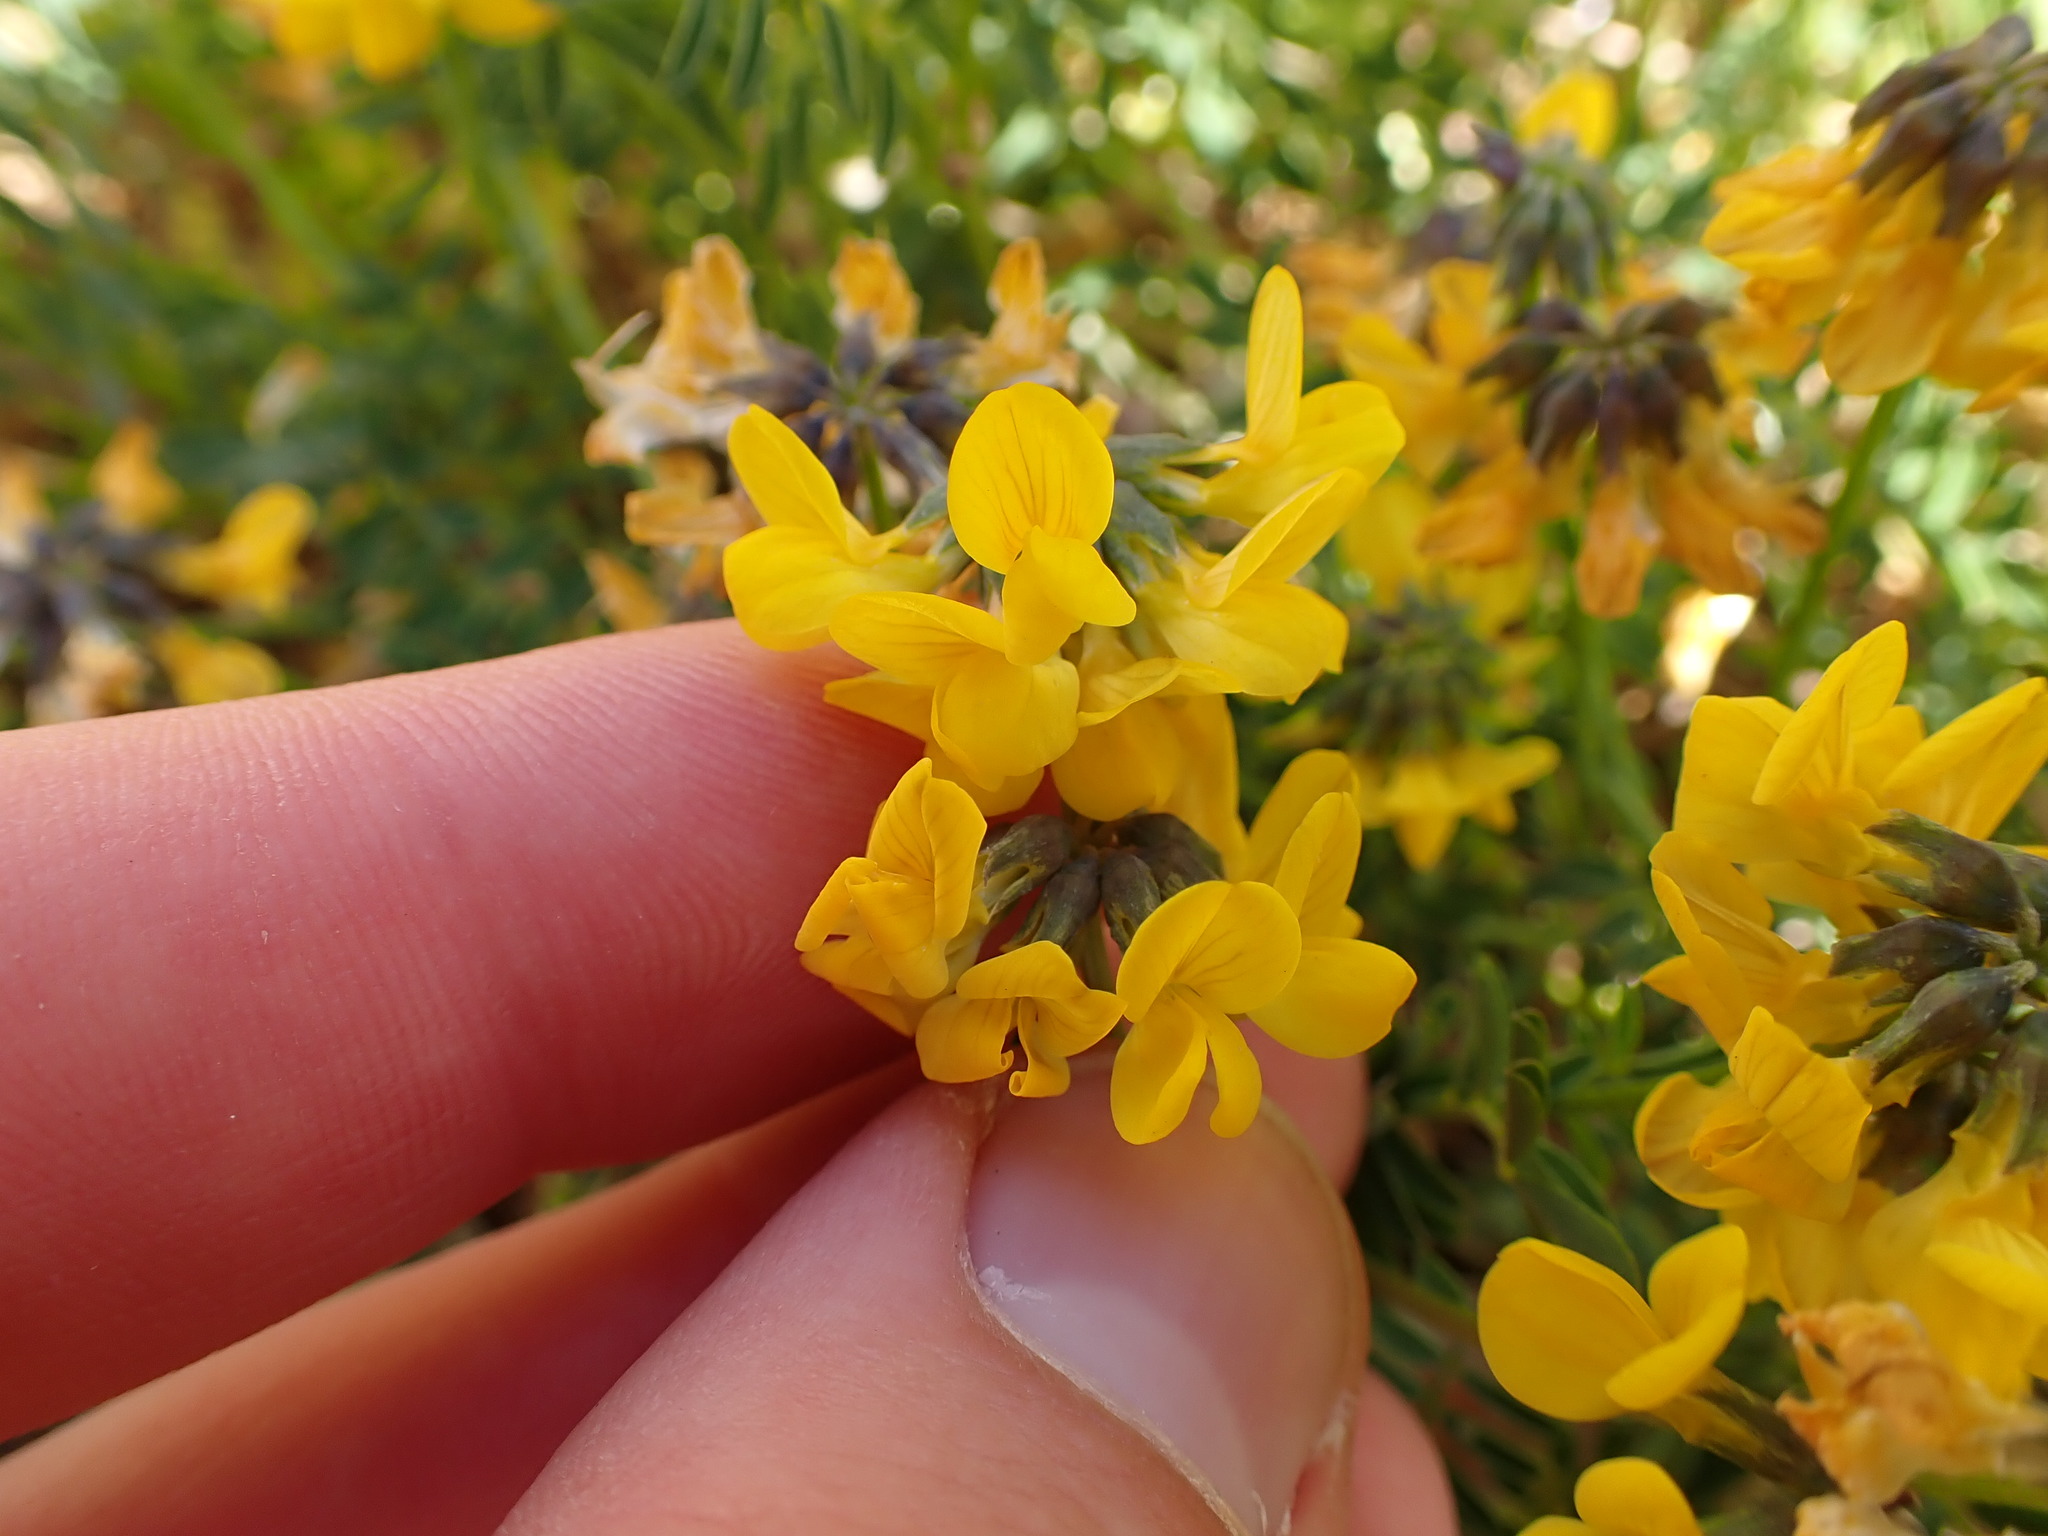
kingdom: Plantae
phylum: Tracheophyta
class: Magnoliopsida
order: Fabales
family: Fabaceae
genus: Hippocrepis
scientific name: Hippocrepis comosa
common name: Horseshoe vetch
